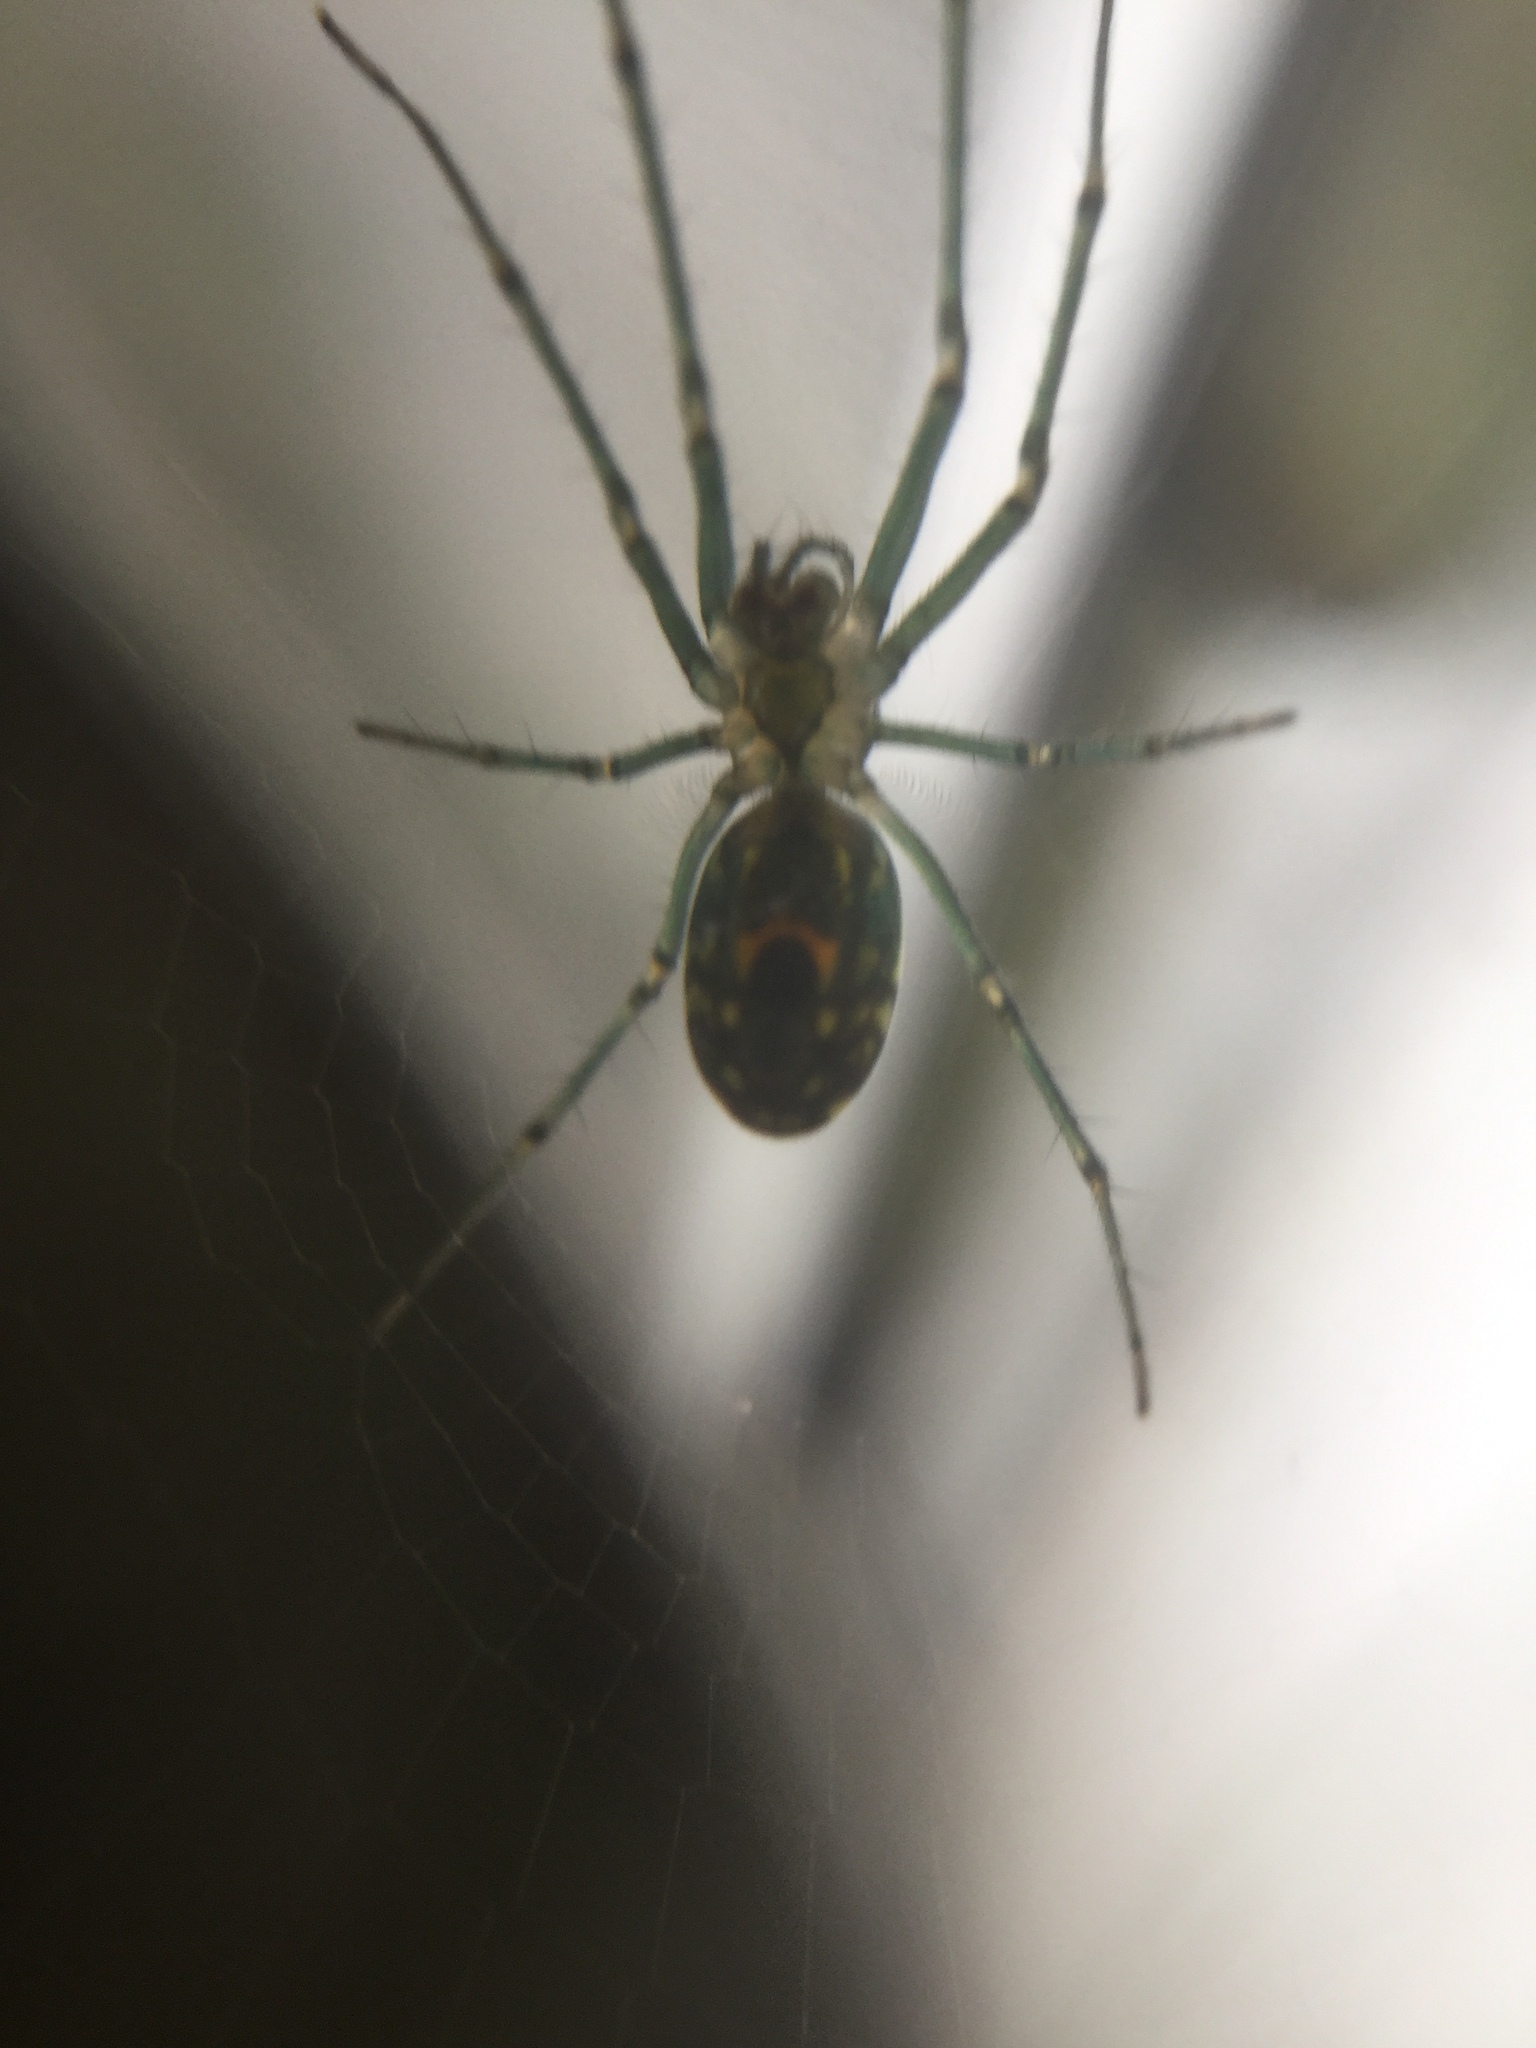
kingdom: Animalia
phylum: Arthropoda
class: Arachnida
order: Araneae
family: Tetragnathidae
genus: Leucauge
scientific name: Leucauge venusta
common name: Longjawed orb weavers
